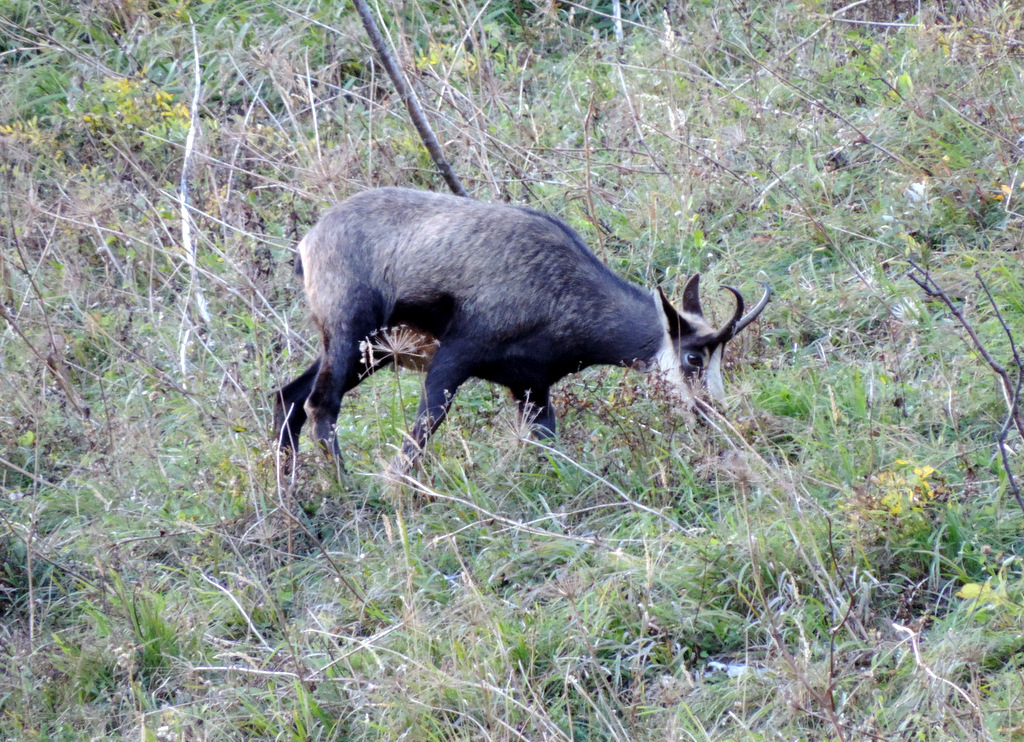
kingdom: Animalia
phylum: Chordata
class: Mammalia
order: Artiodactyla
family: Bovidae
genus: Rupicapra
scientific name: Rupicapra rupicapra
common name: Chamois
